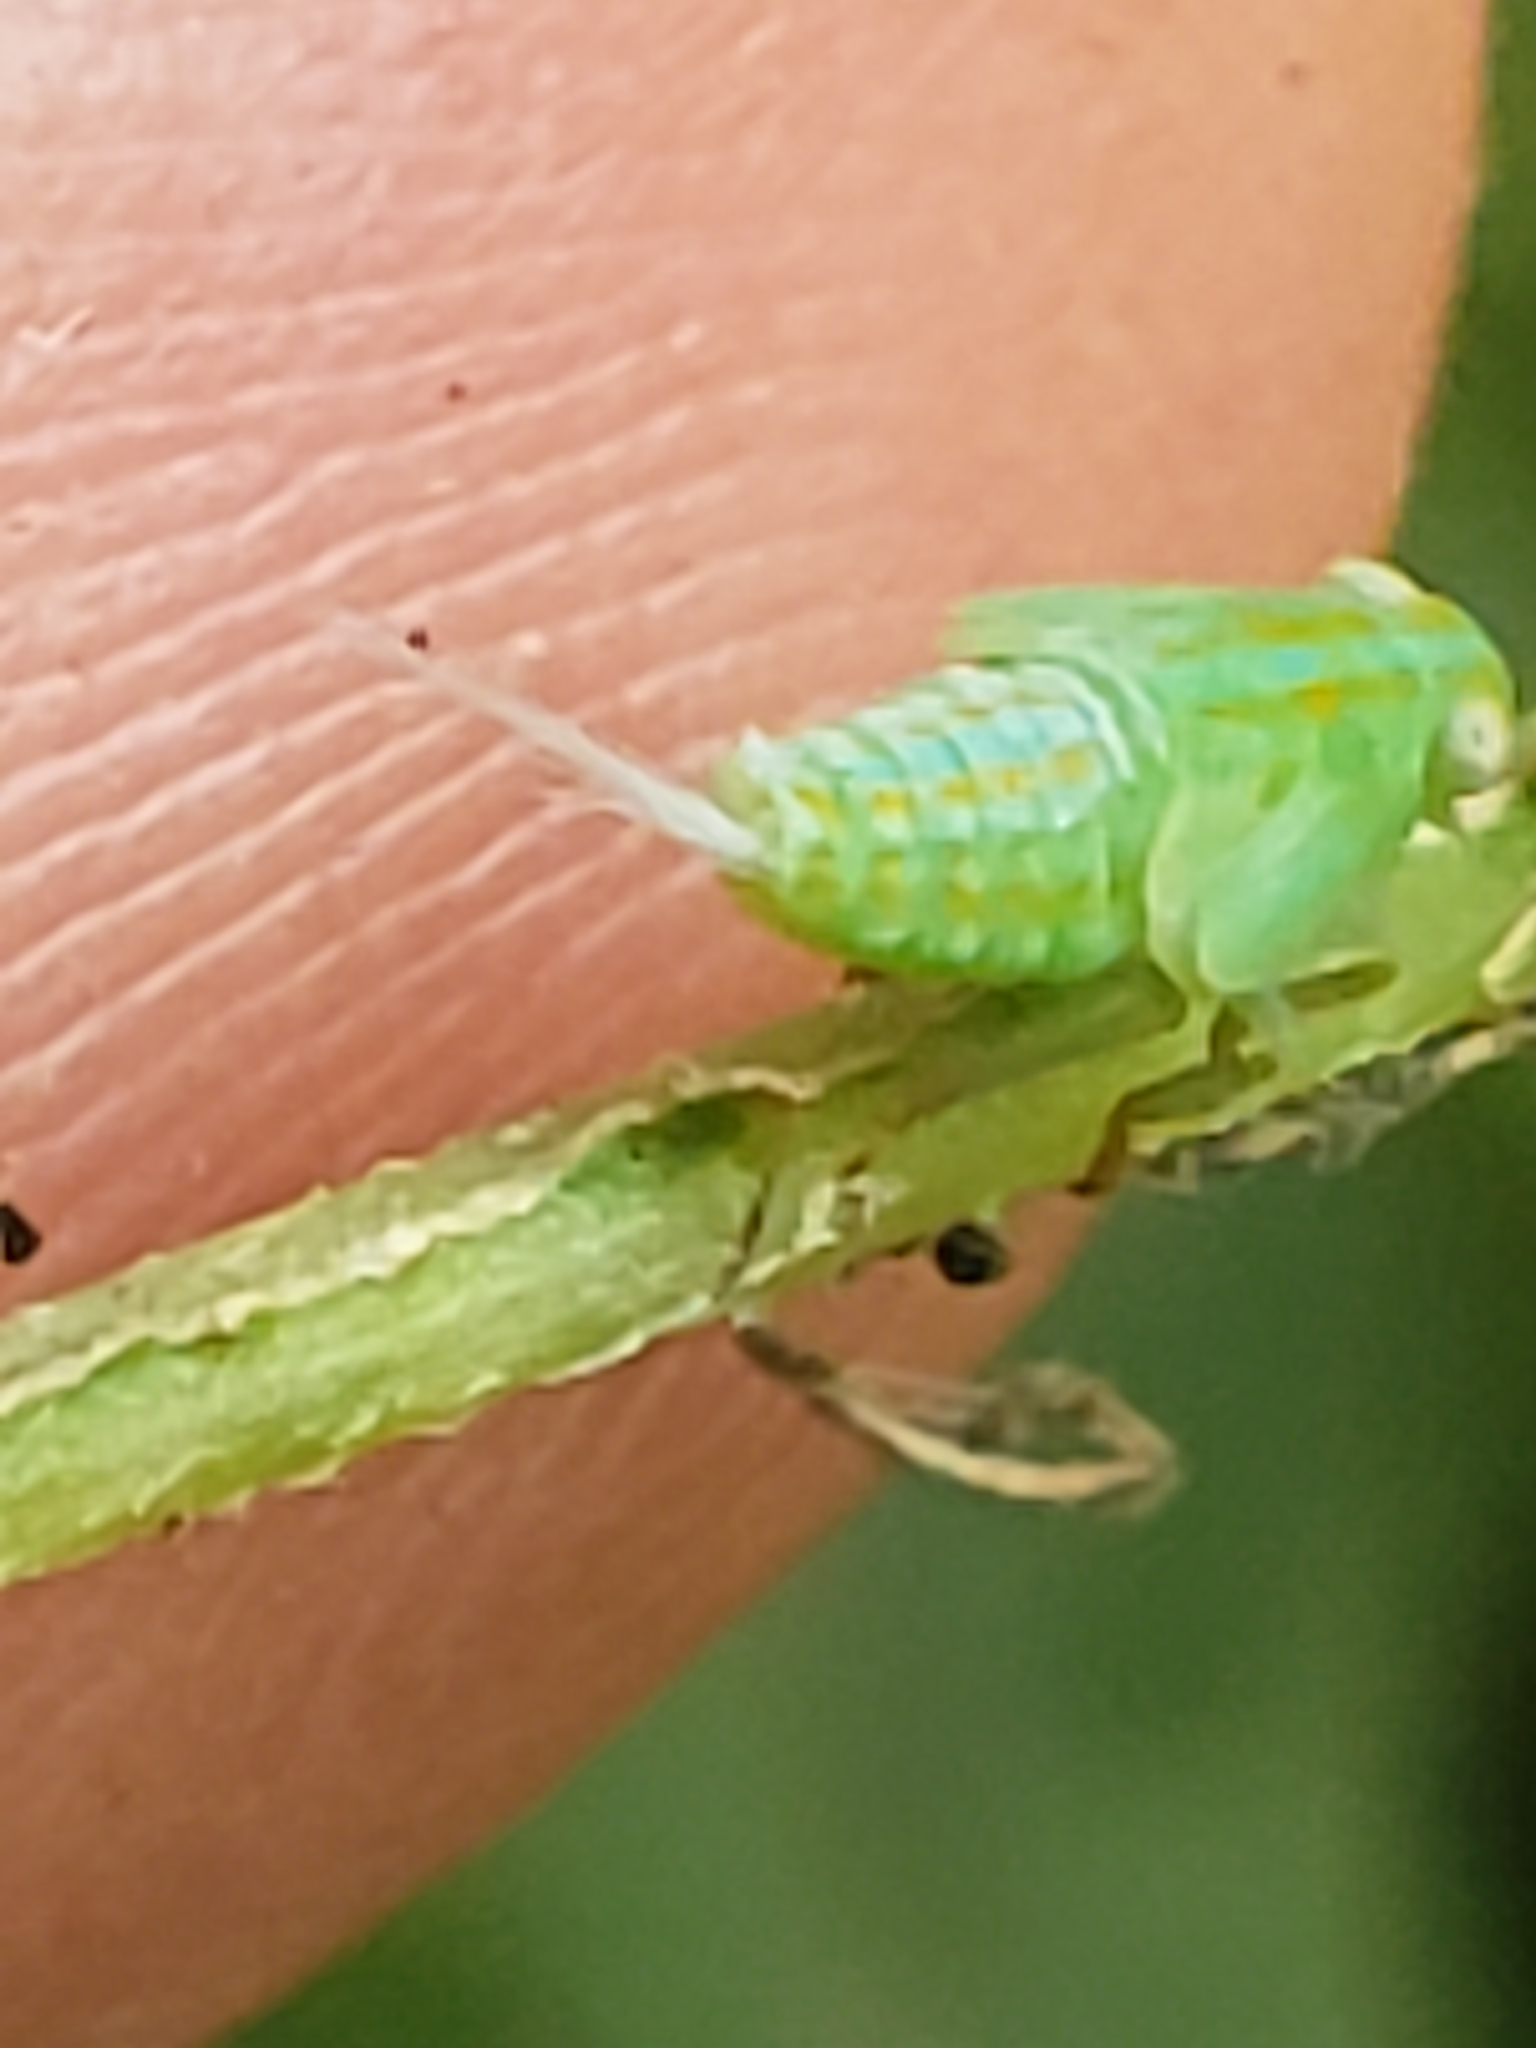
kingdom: Animalia
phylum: Arthropoda
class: Insecta
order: Hemiptera
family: Issidae
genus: Aplos
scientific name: Aplos simplex
